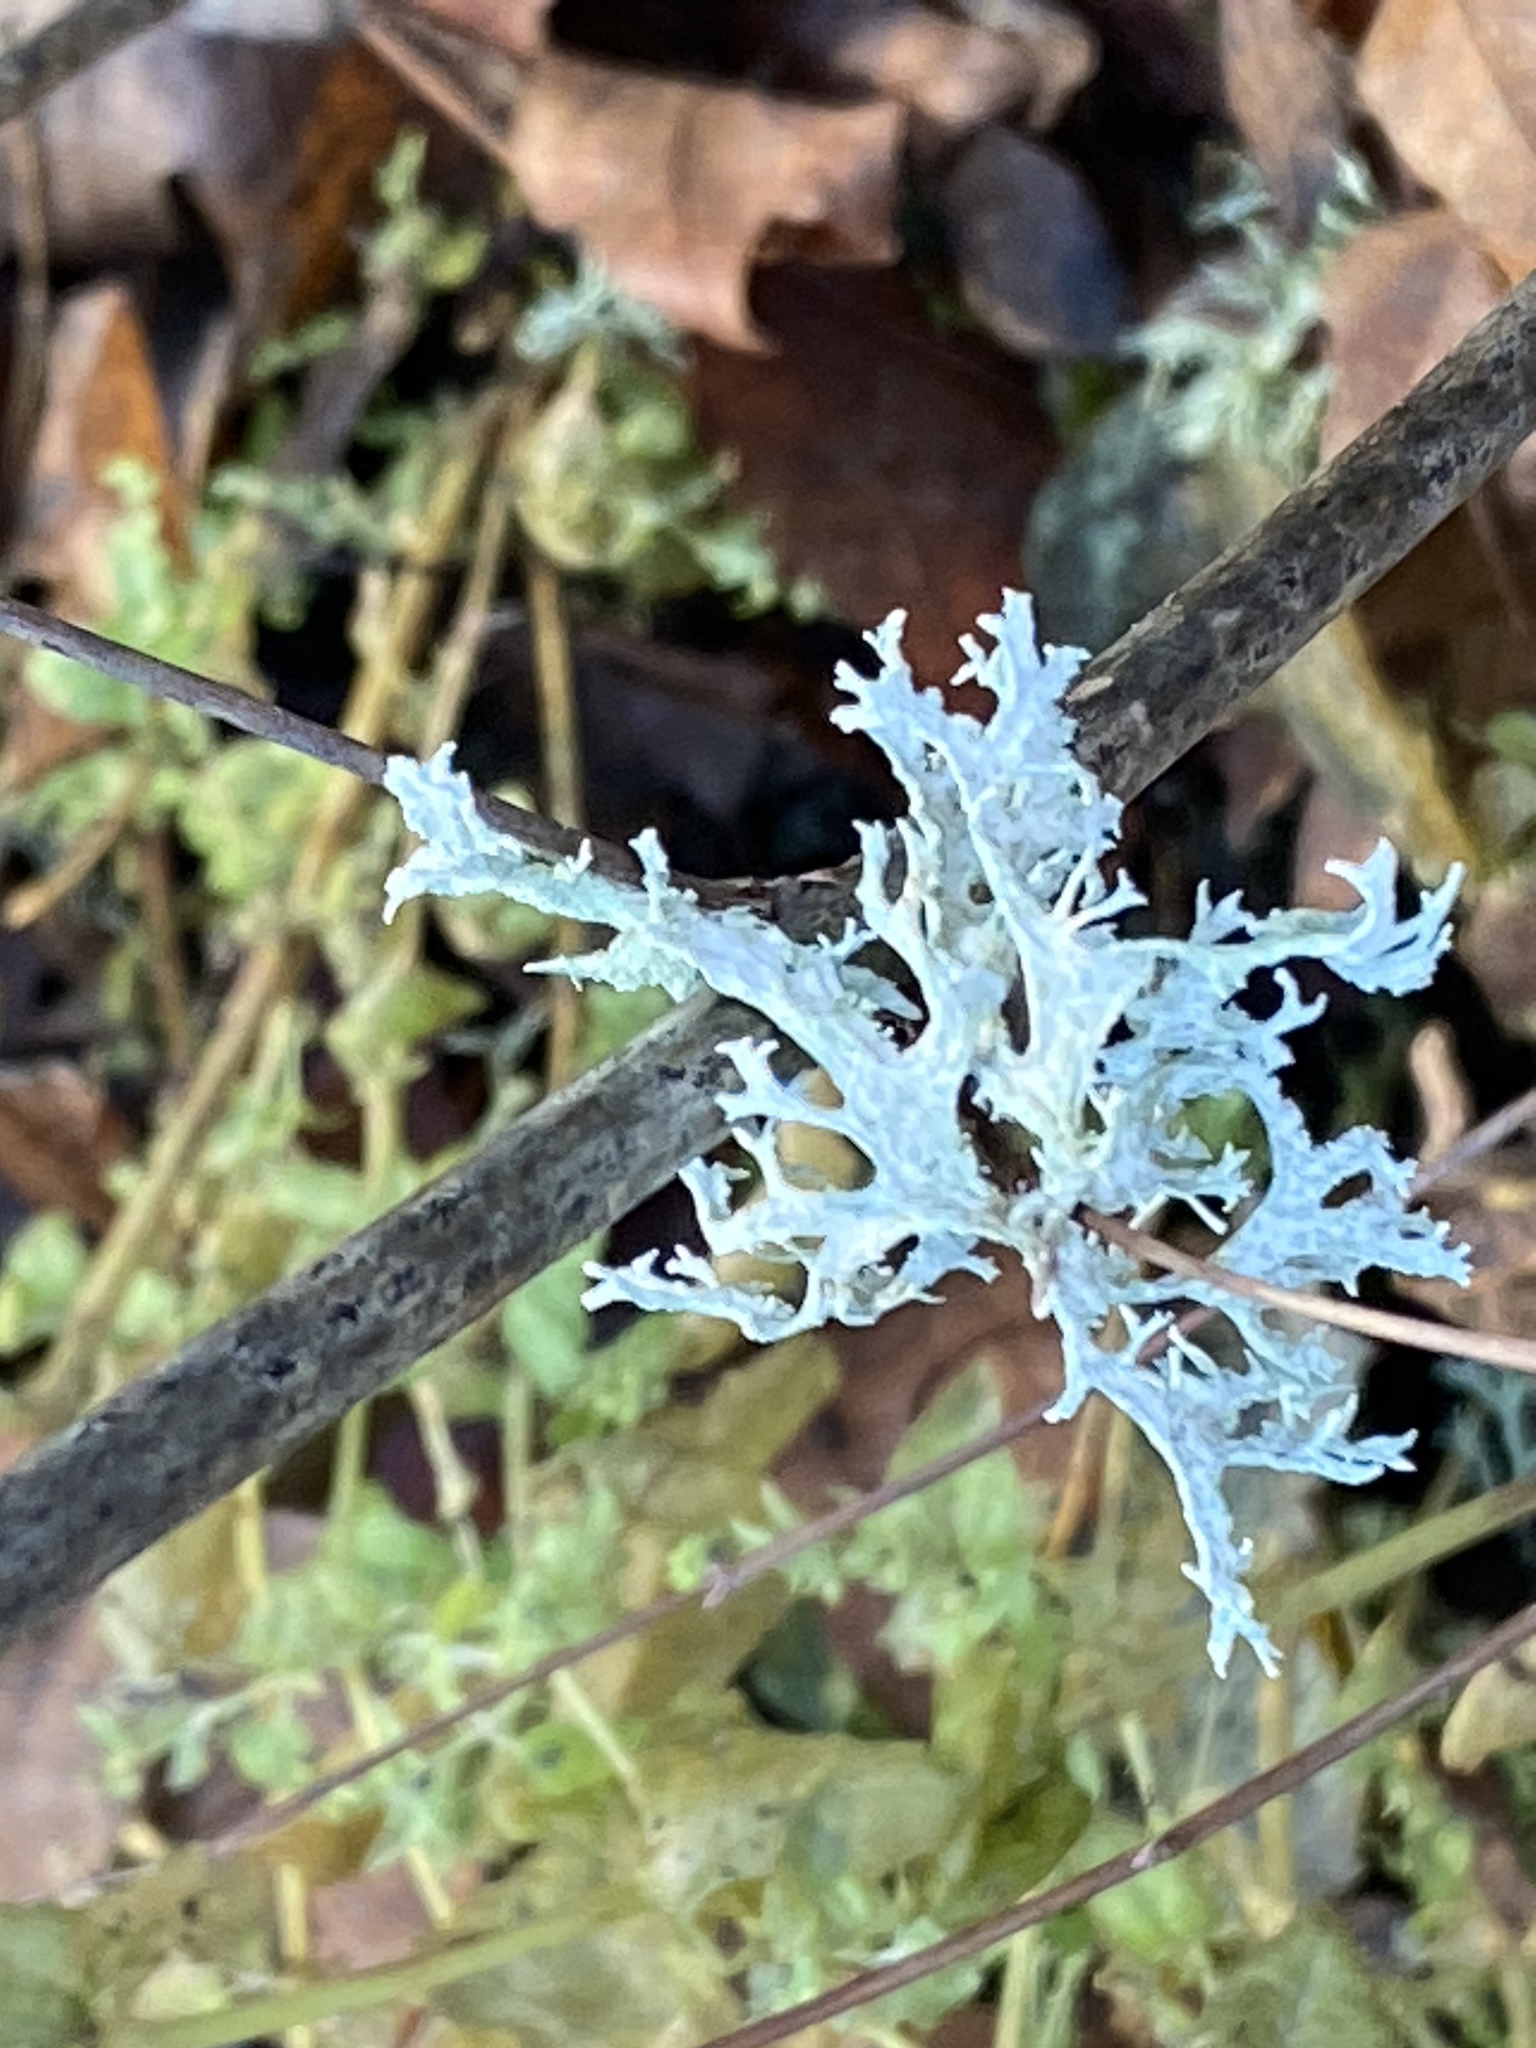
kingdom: Fungi
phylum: Ascomycota
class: Lecanoromycetes
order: Lecanorales
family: Parmeliaceae
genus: Evernia
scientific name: Evernia prunastri
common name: Oak moss
